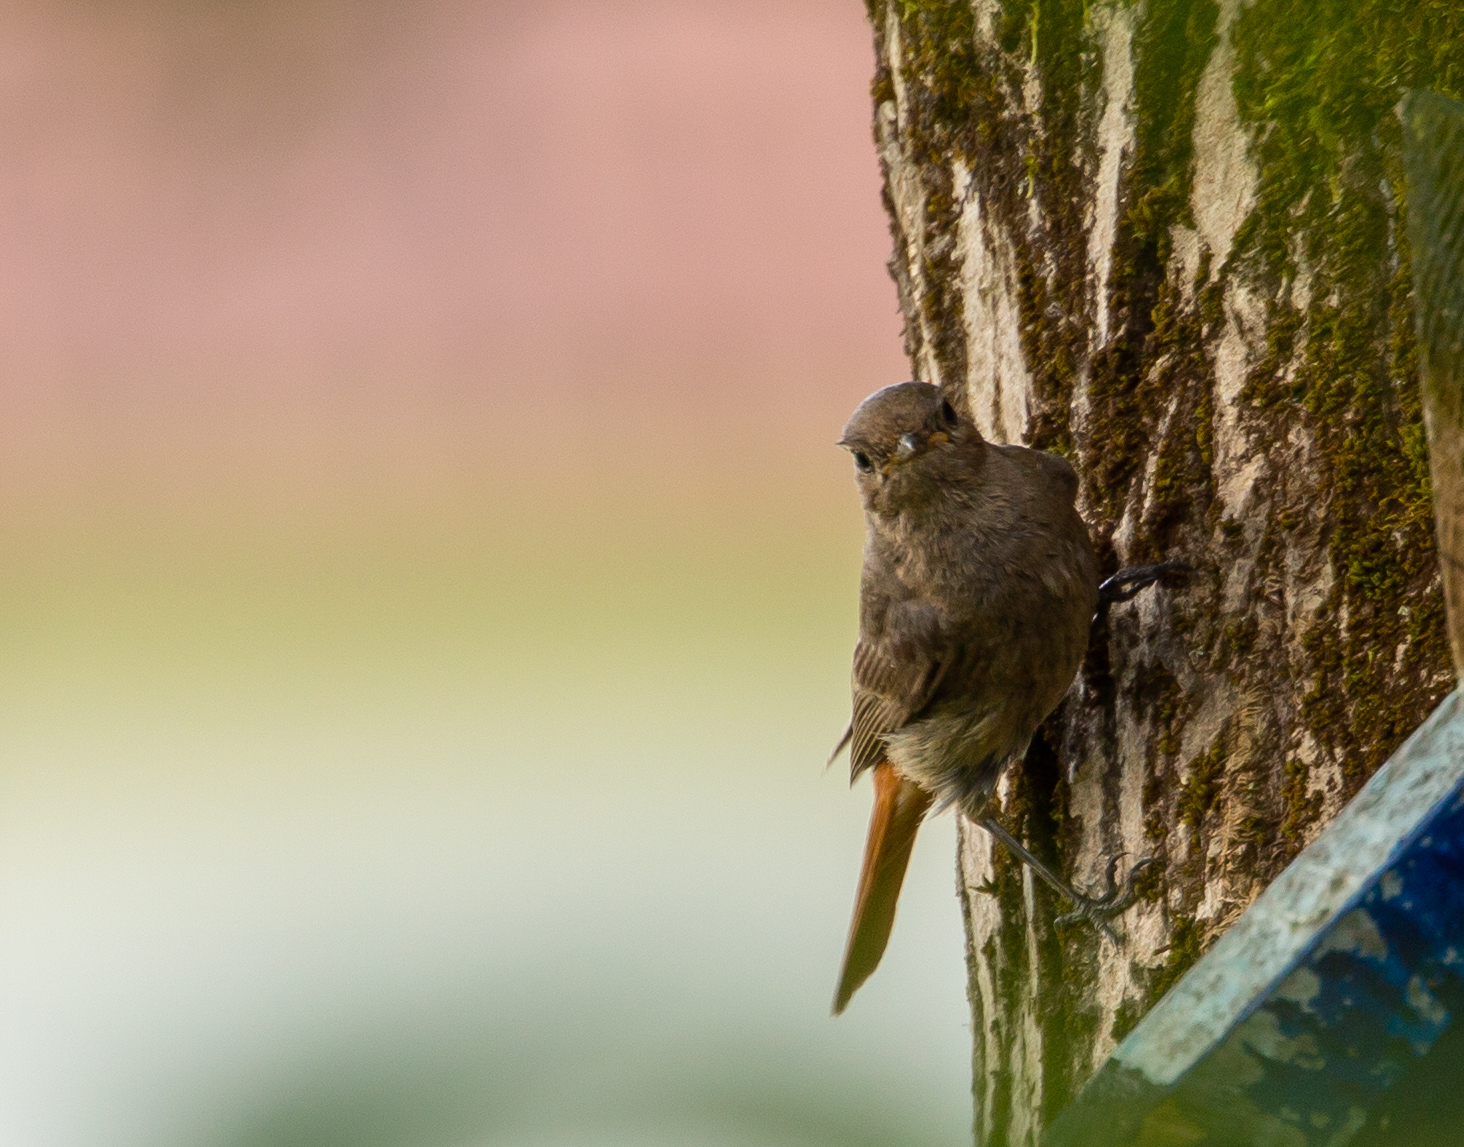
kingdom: Animalia
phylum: Chordata
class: Aves
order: Passeriformes
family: Muscicapidae
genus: Phoenicurus
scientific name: Phoenicurus ochruros
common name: Black redstart
